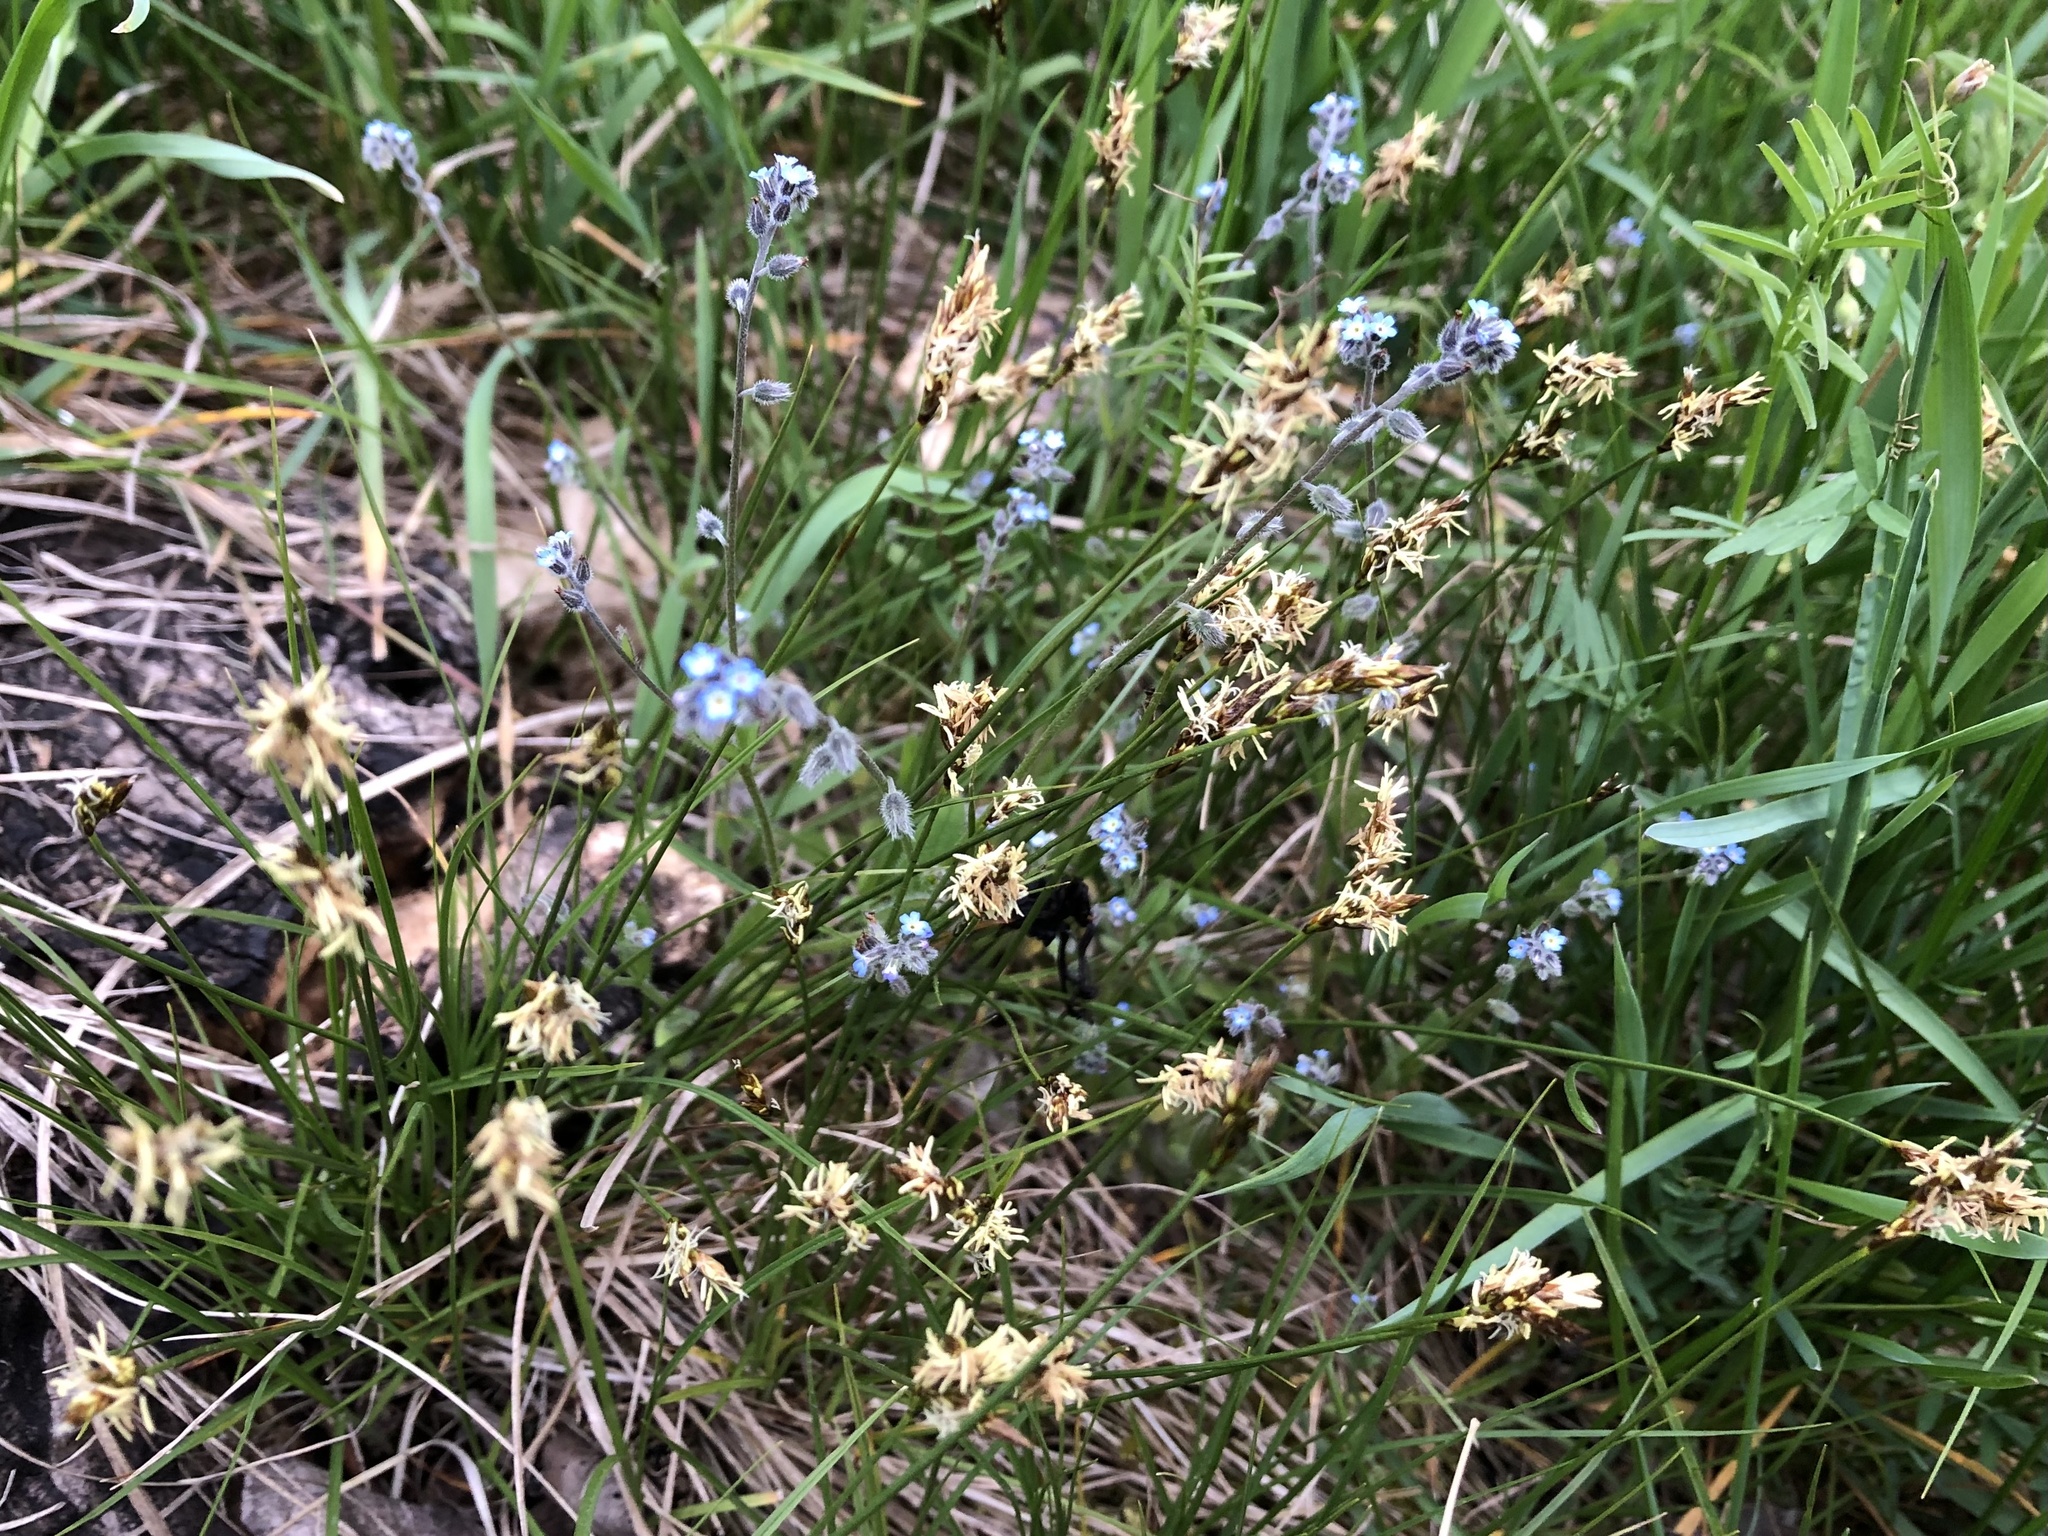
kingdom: Plantae
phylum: Tracheophyta
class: Liliopsida
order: Poales
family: Cyperaceae
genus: Carex
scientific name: Carex praecox
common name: Early sedge
